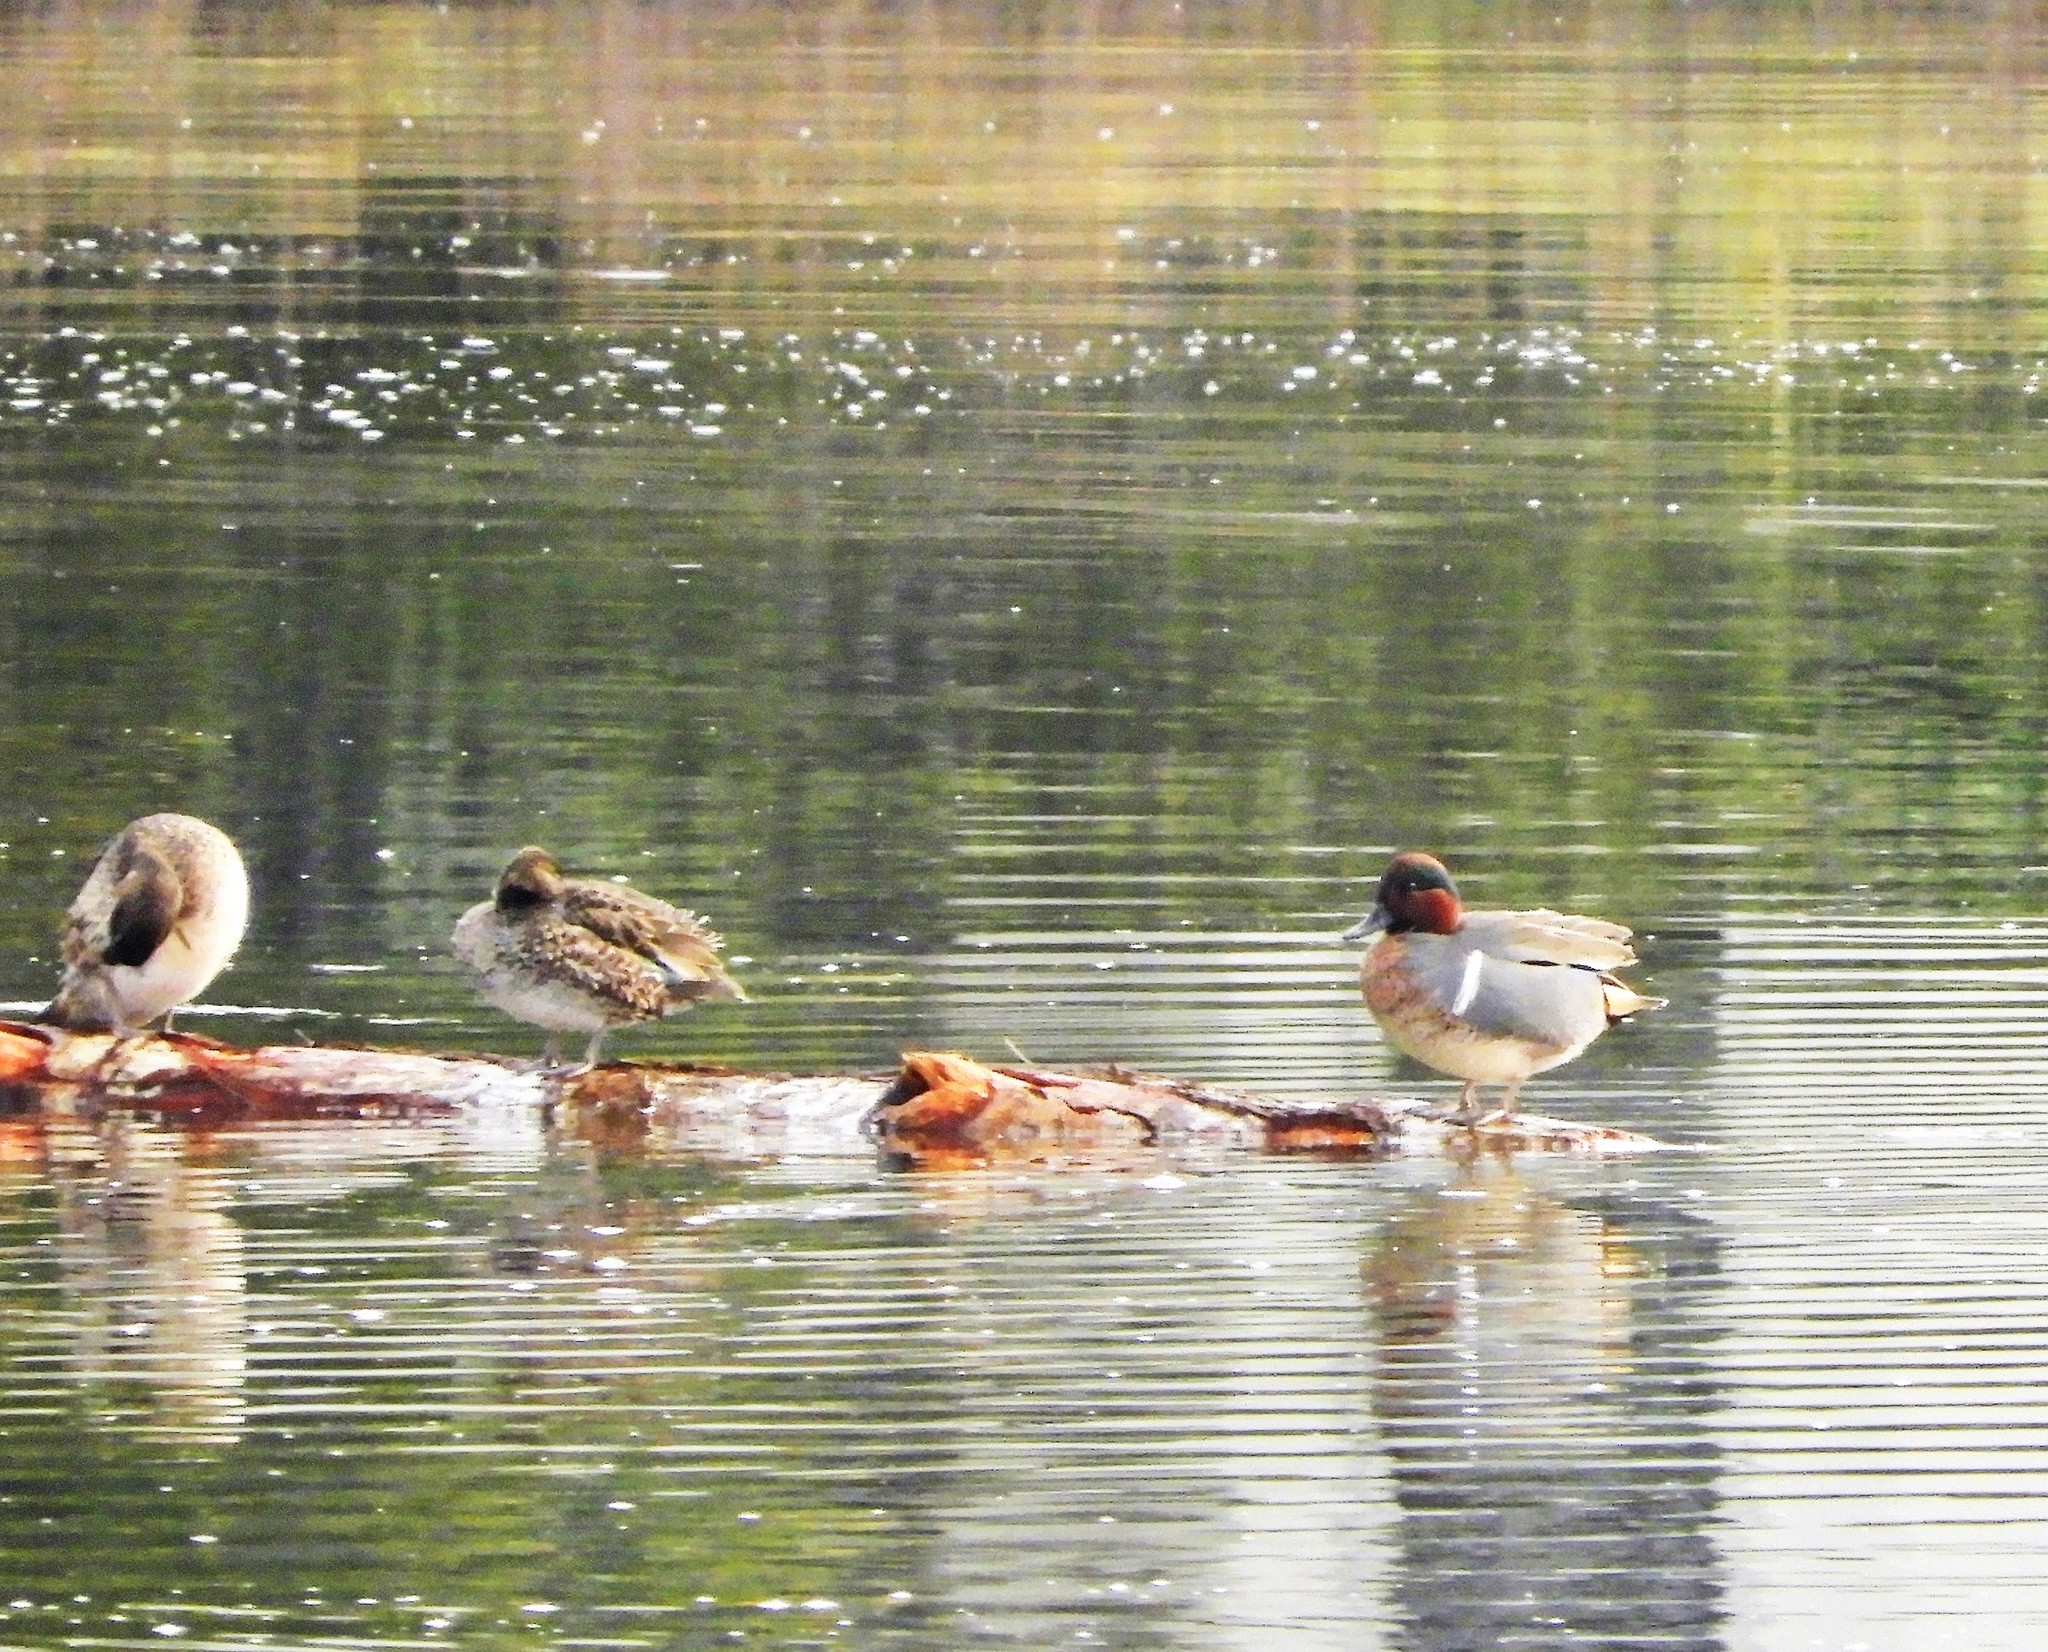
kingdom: Animalia
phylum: Chordata
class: Aves
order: Anseriformes
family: Anatidae
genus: Anas
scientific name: Anas crecca
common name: Eurasian teal
